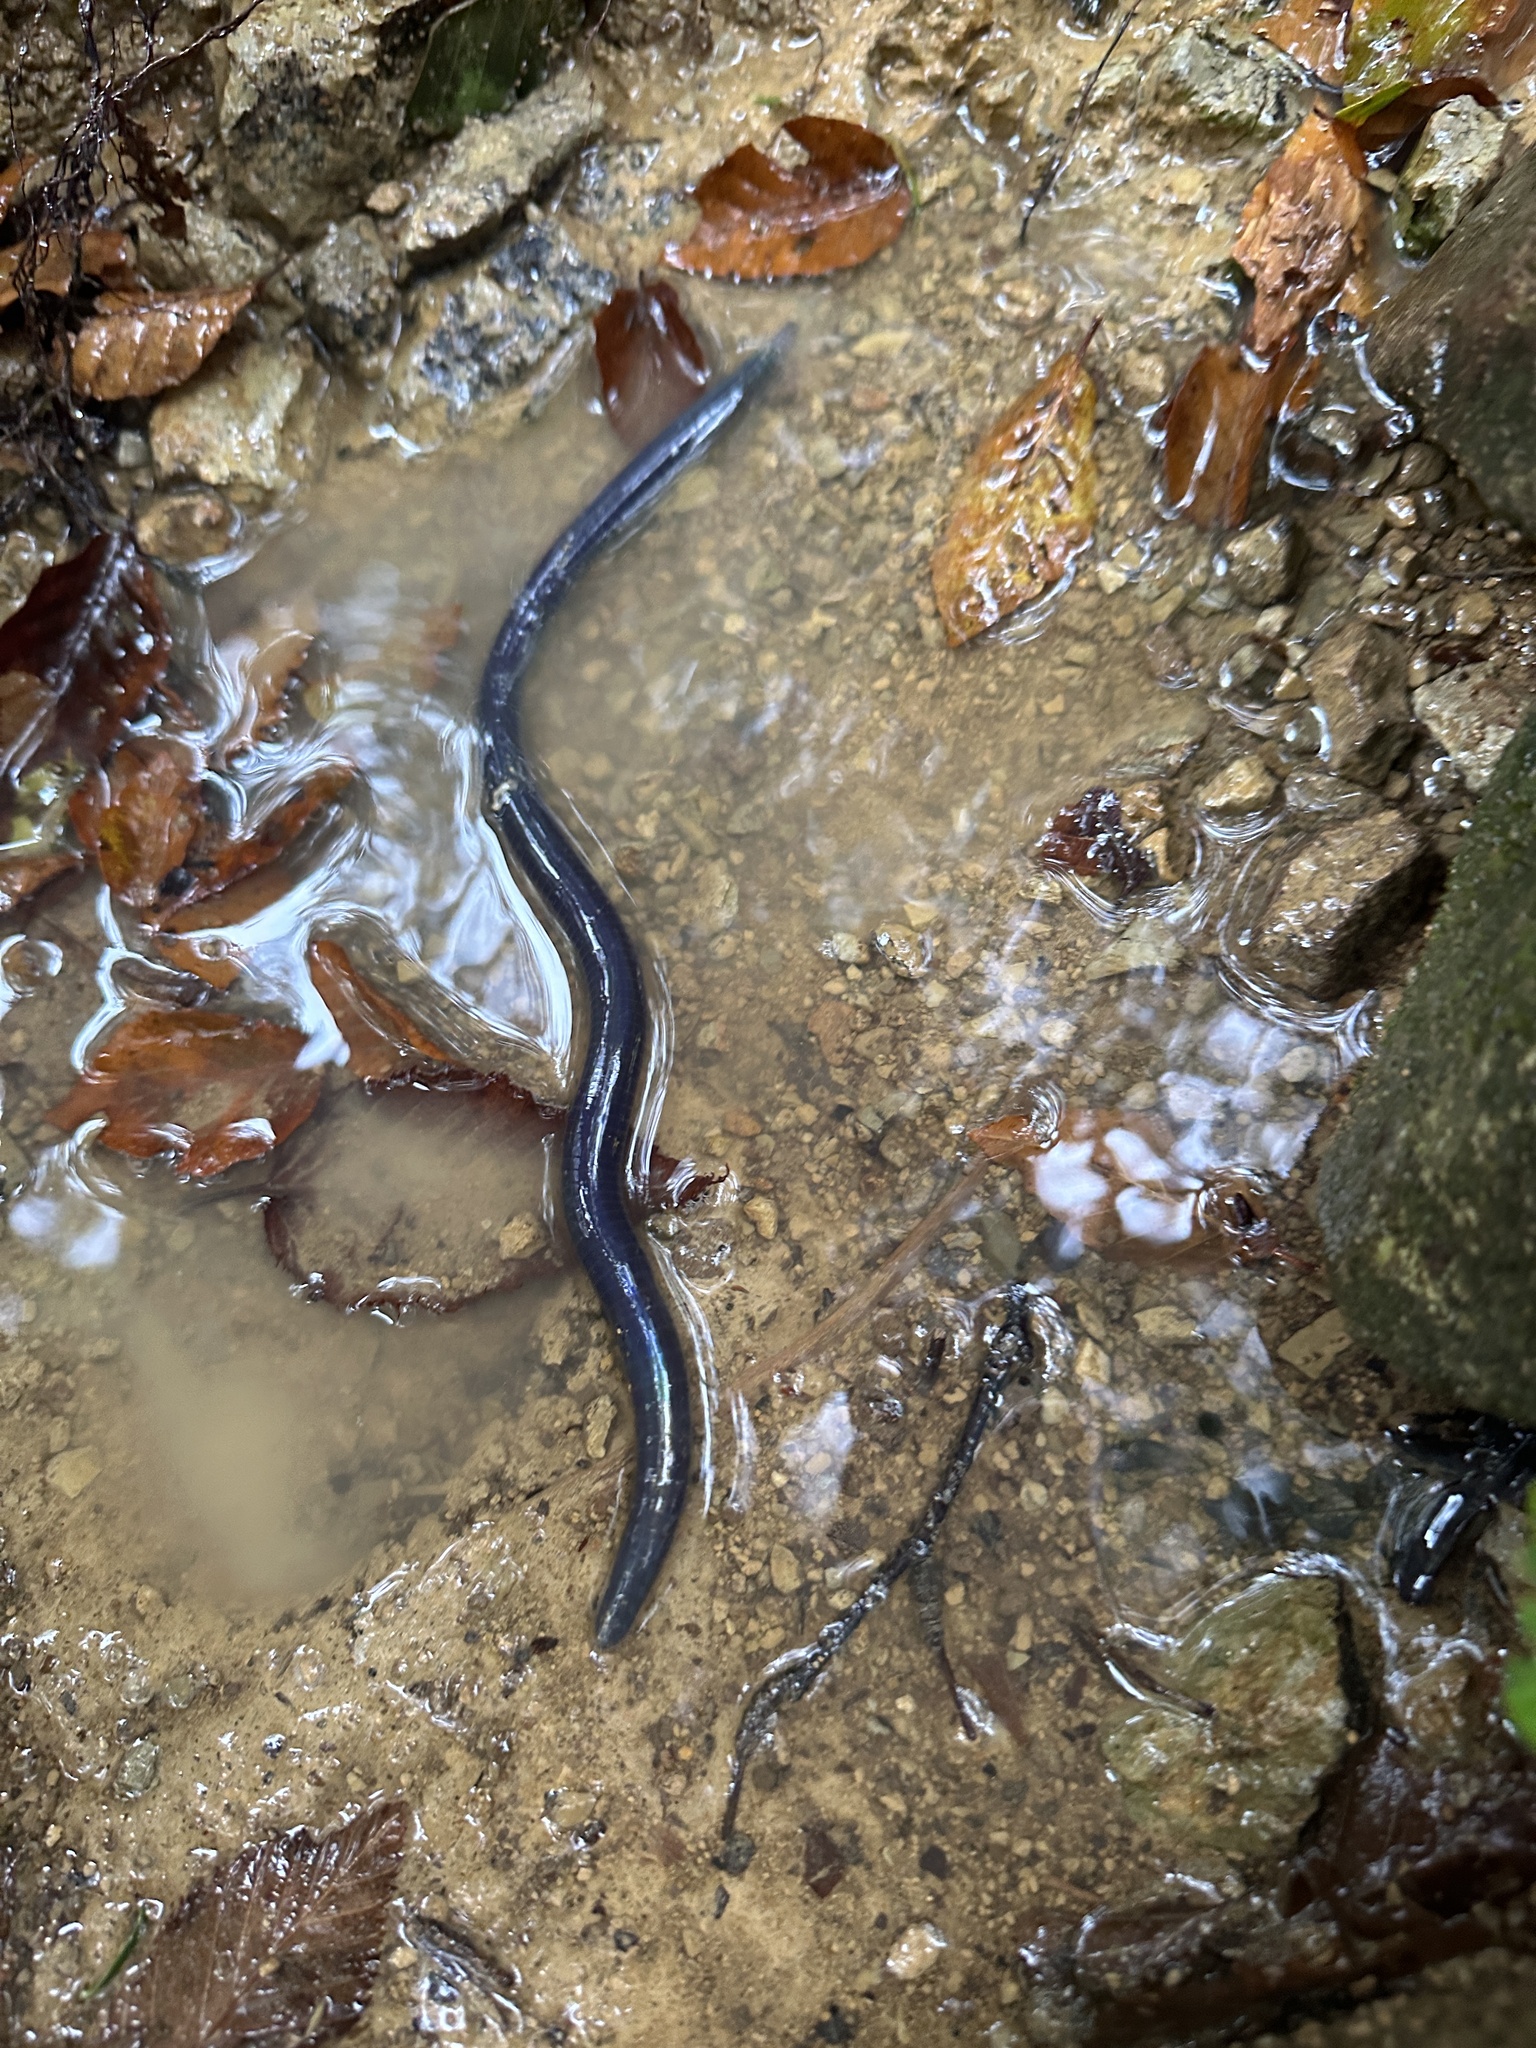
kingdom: Animalia
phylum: Annelida
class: Clitellata
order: Crassiclitellata
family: Megascolecidae
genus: Pheretima
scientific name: Pheretima
